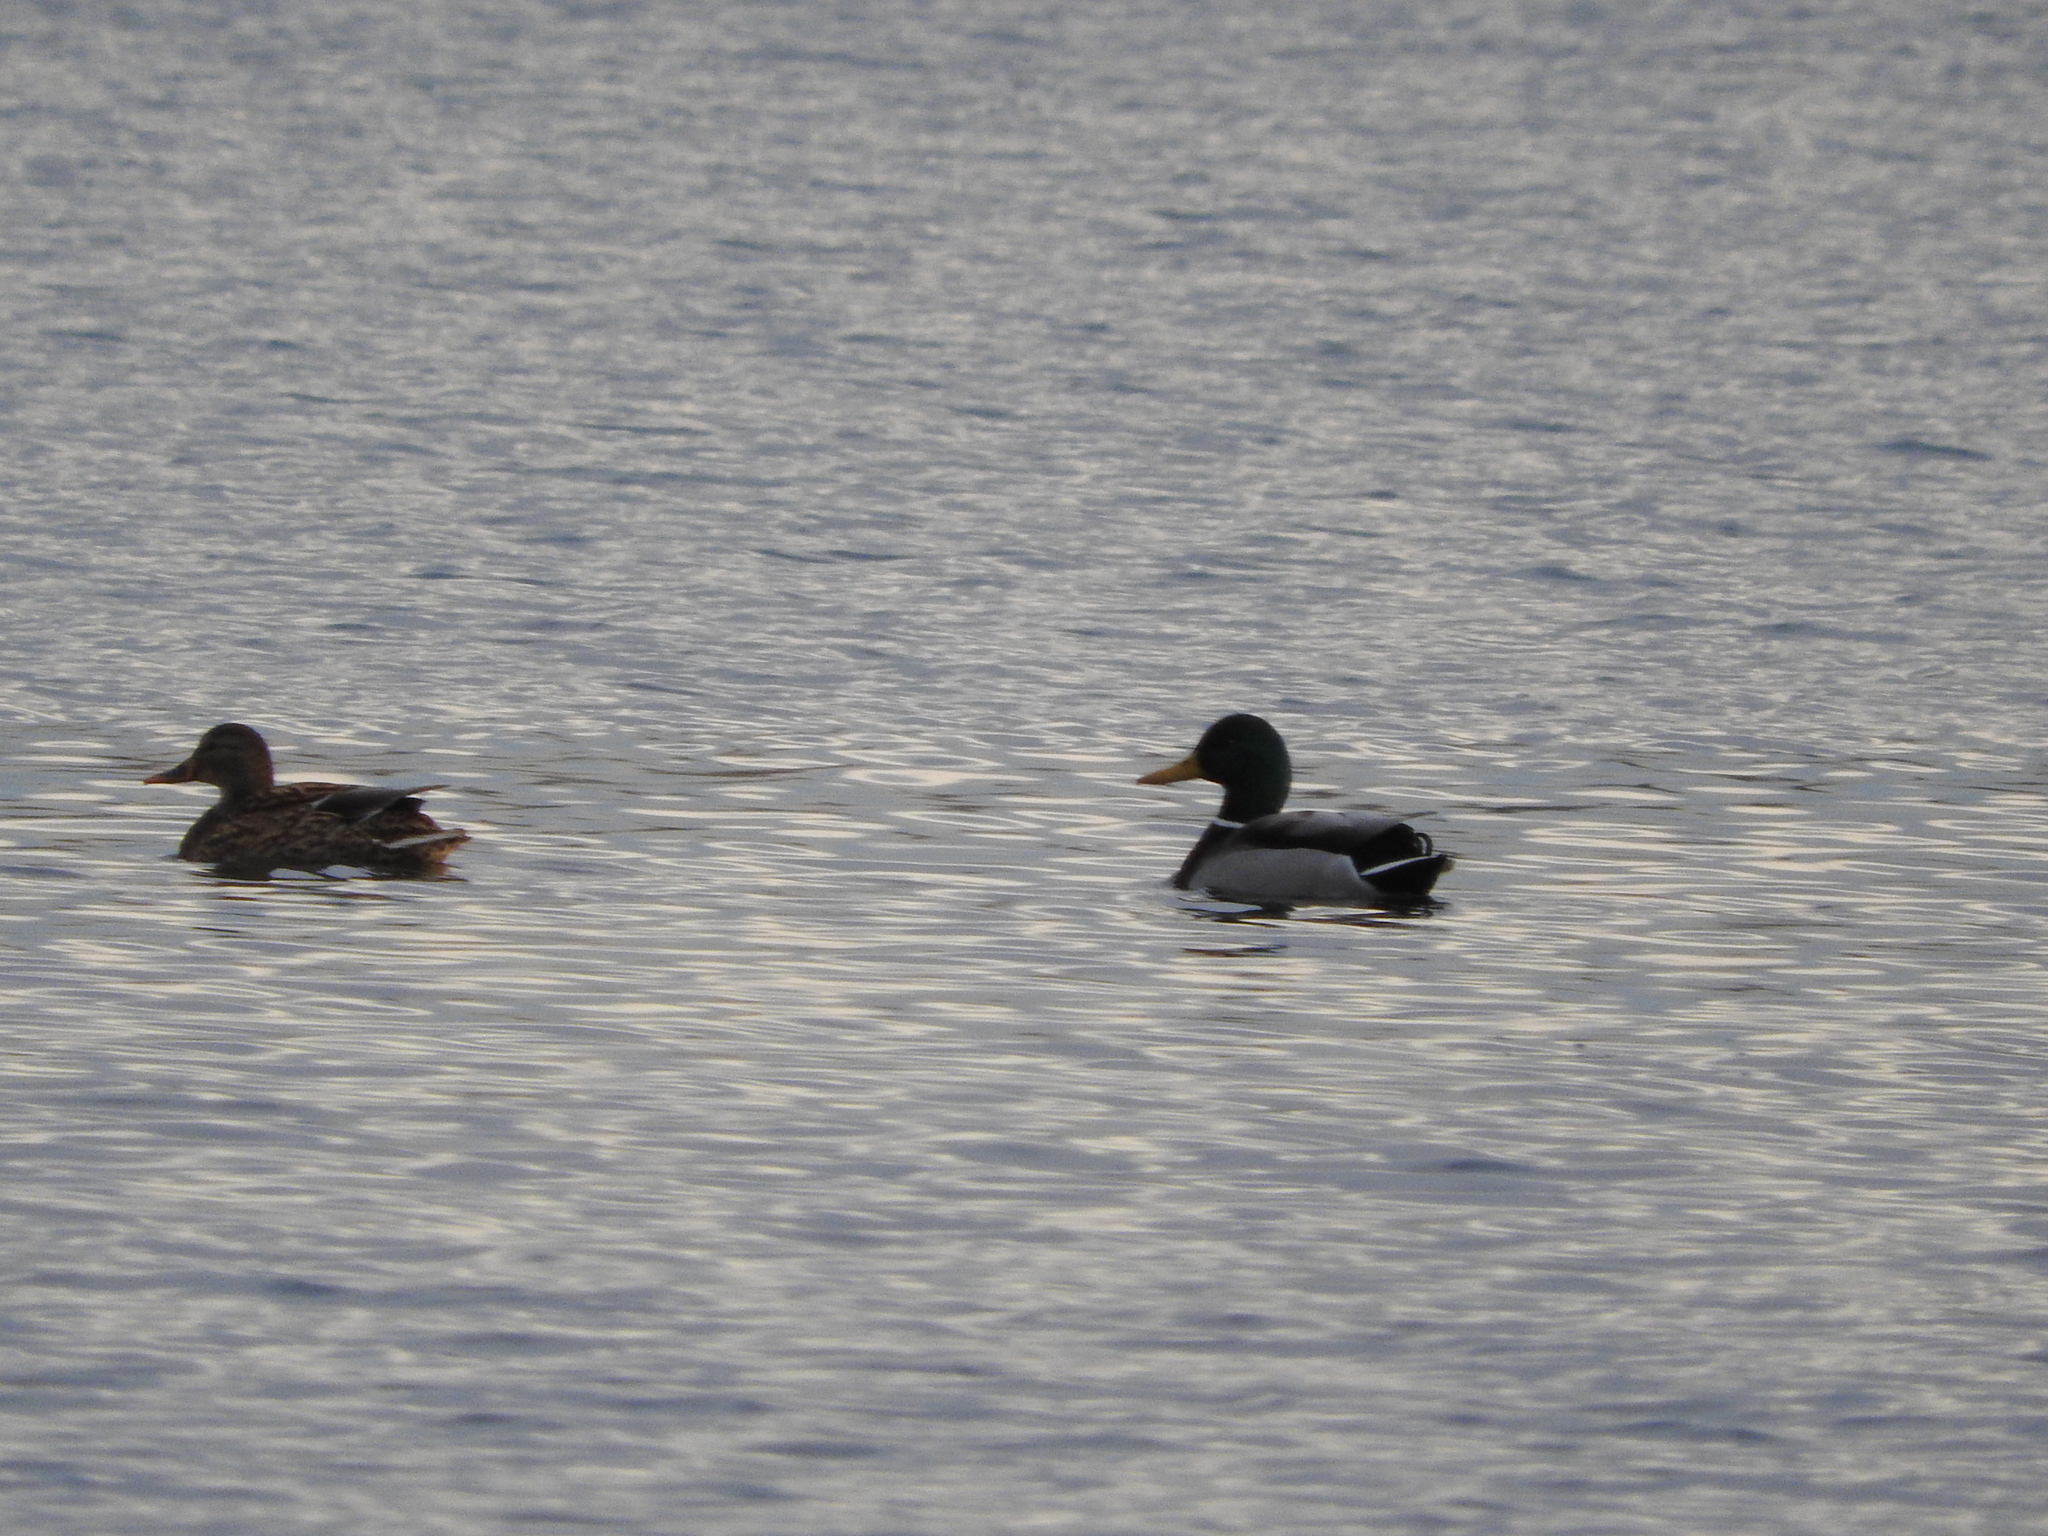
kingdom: Animalia
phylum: Chordata
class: Aves
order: Anseriformes
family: Anatidae
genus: Anas
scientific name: Anas platyrhynchos
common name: Mallard
